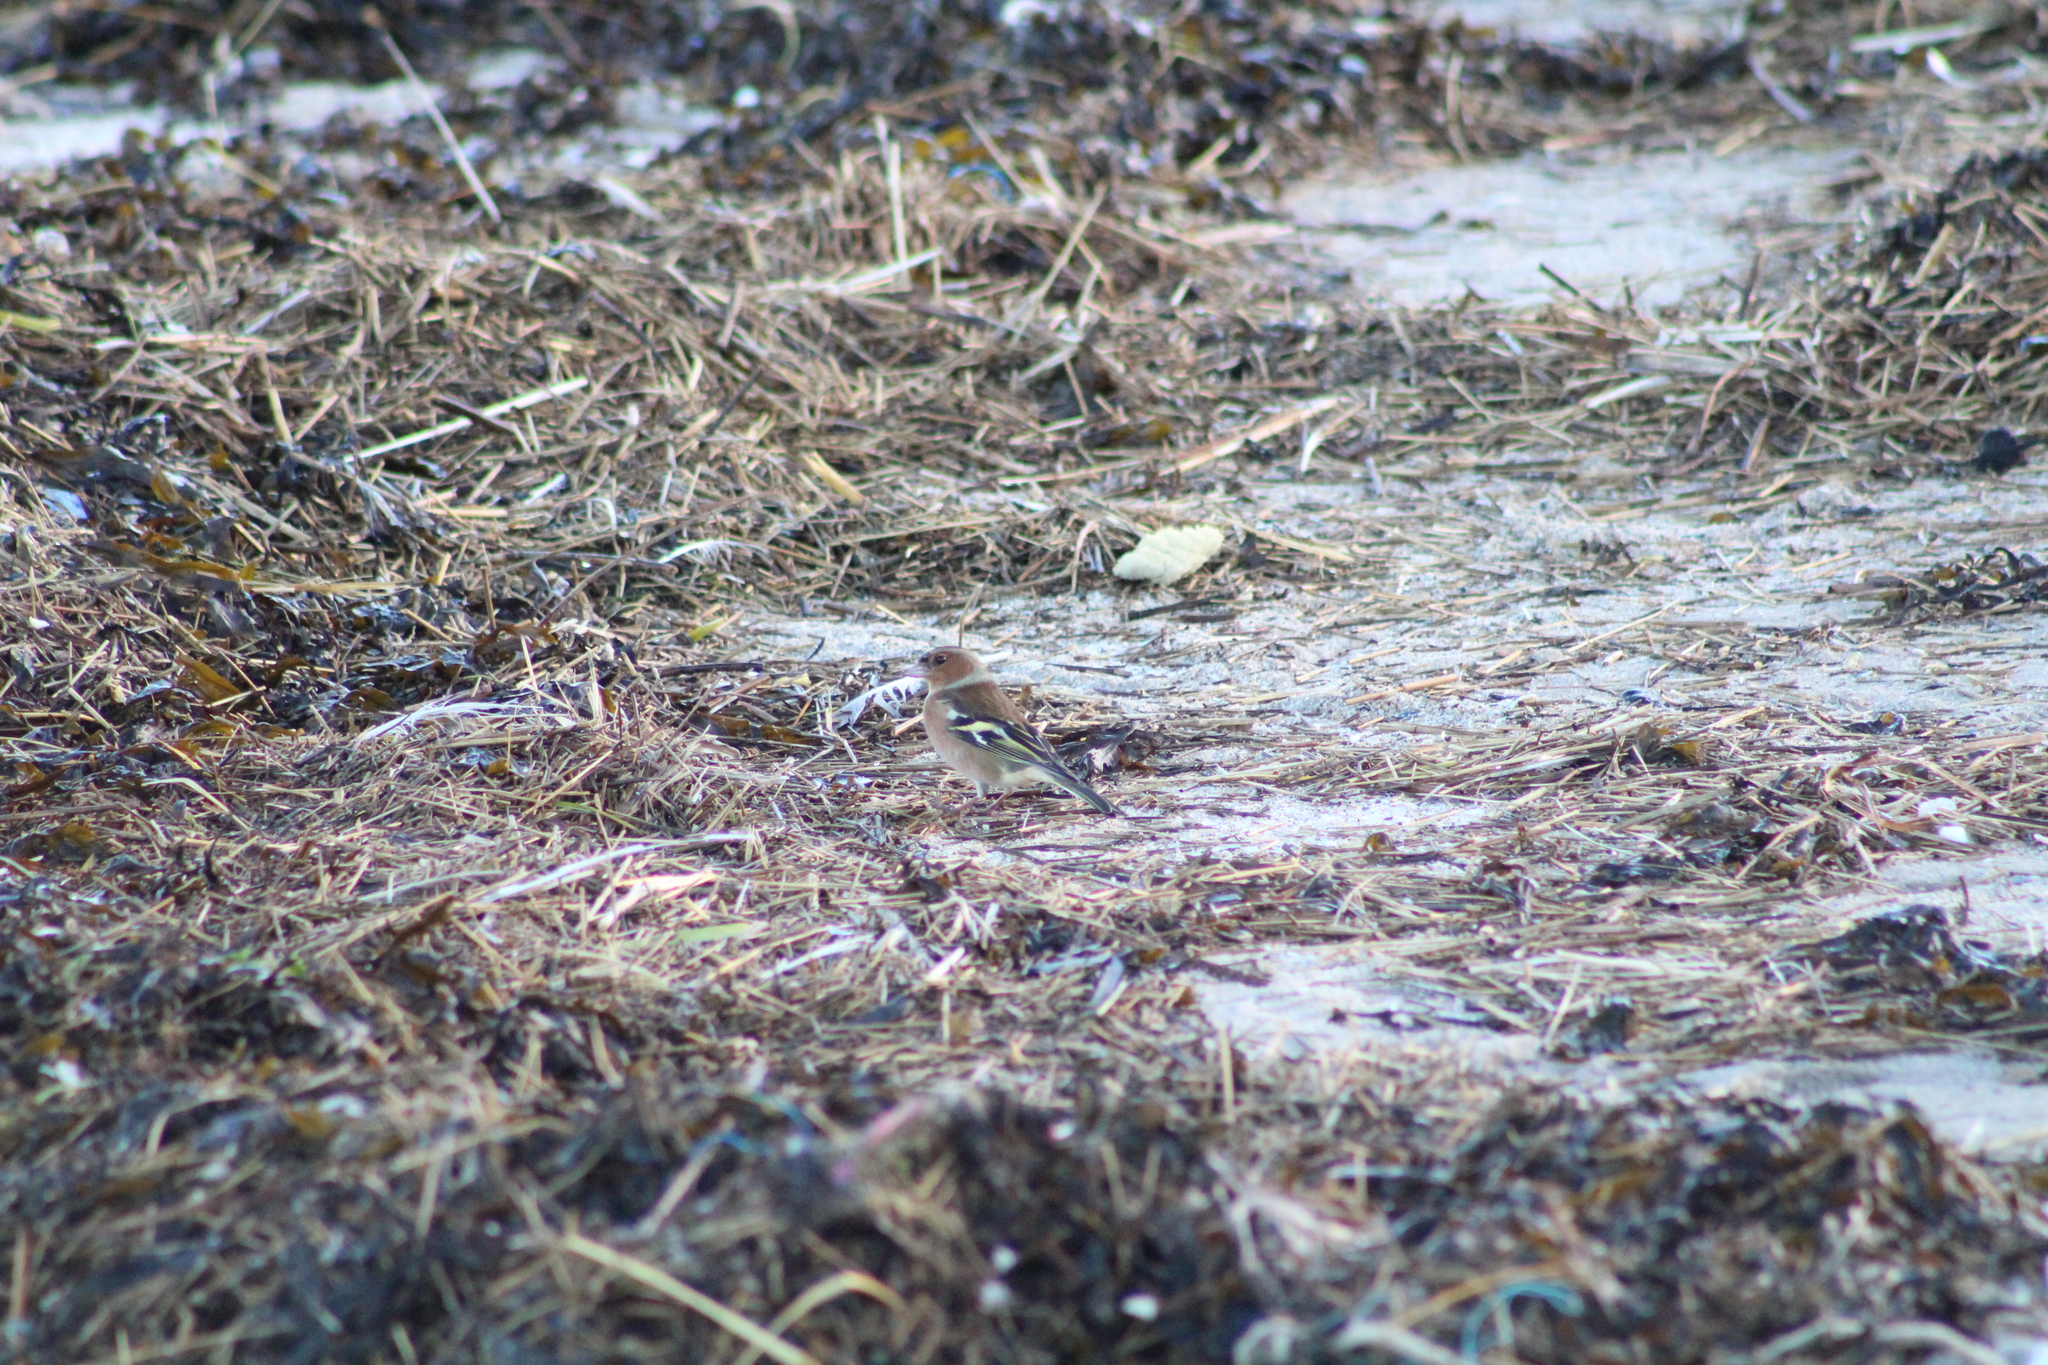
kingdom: Animalia
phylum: Chordata
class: Aves
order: Passeriformes
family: Fringillidae
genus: Fringilla
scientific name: Fringilla coelebs
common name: Common chaffinch
